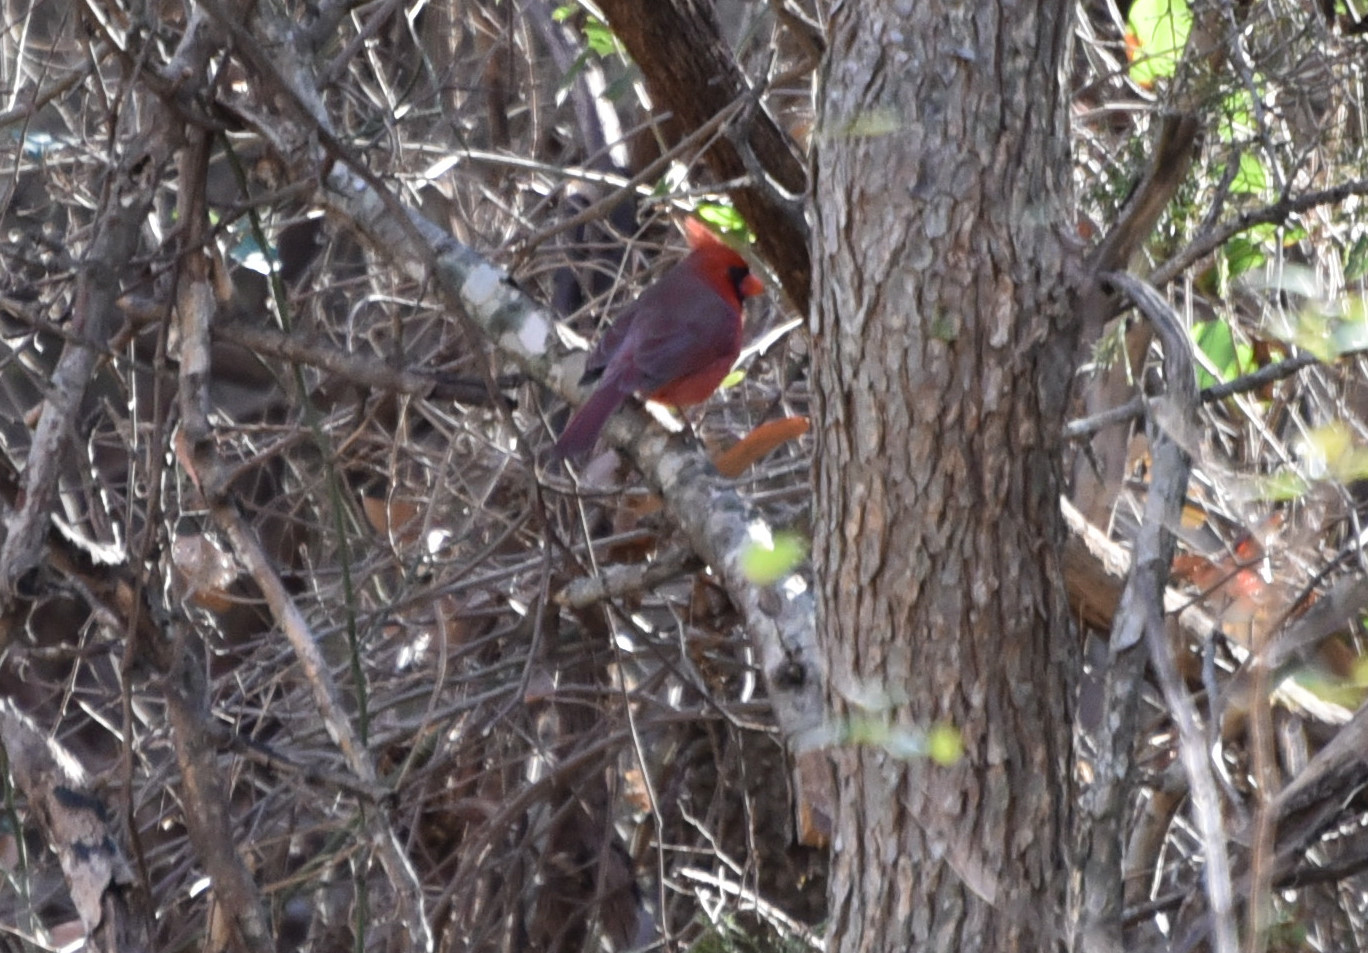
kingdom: Animalia
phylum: Chordata
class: Aves
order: Passeriformes
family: Cardinalidae
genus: Cardinalis
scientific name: Cardinalis cardinalis
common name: Northern cardinal
